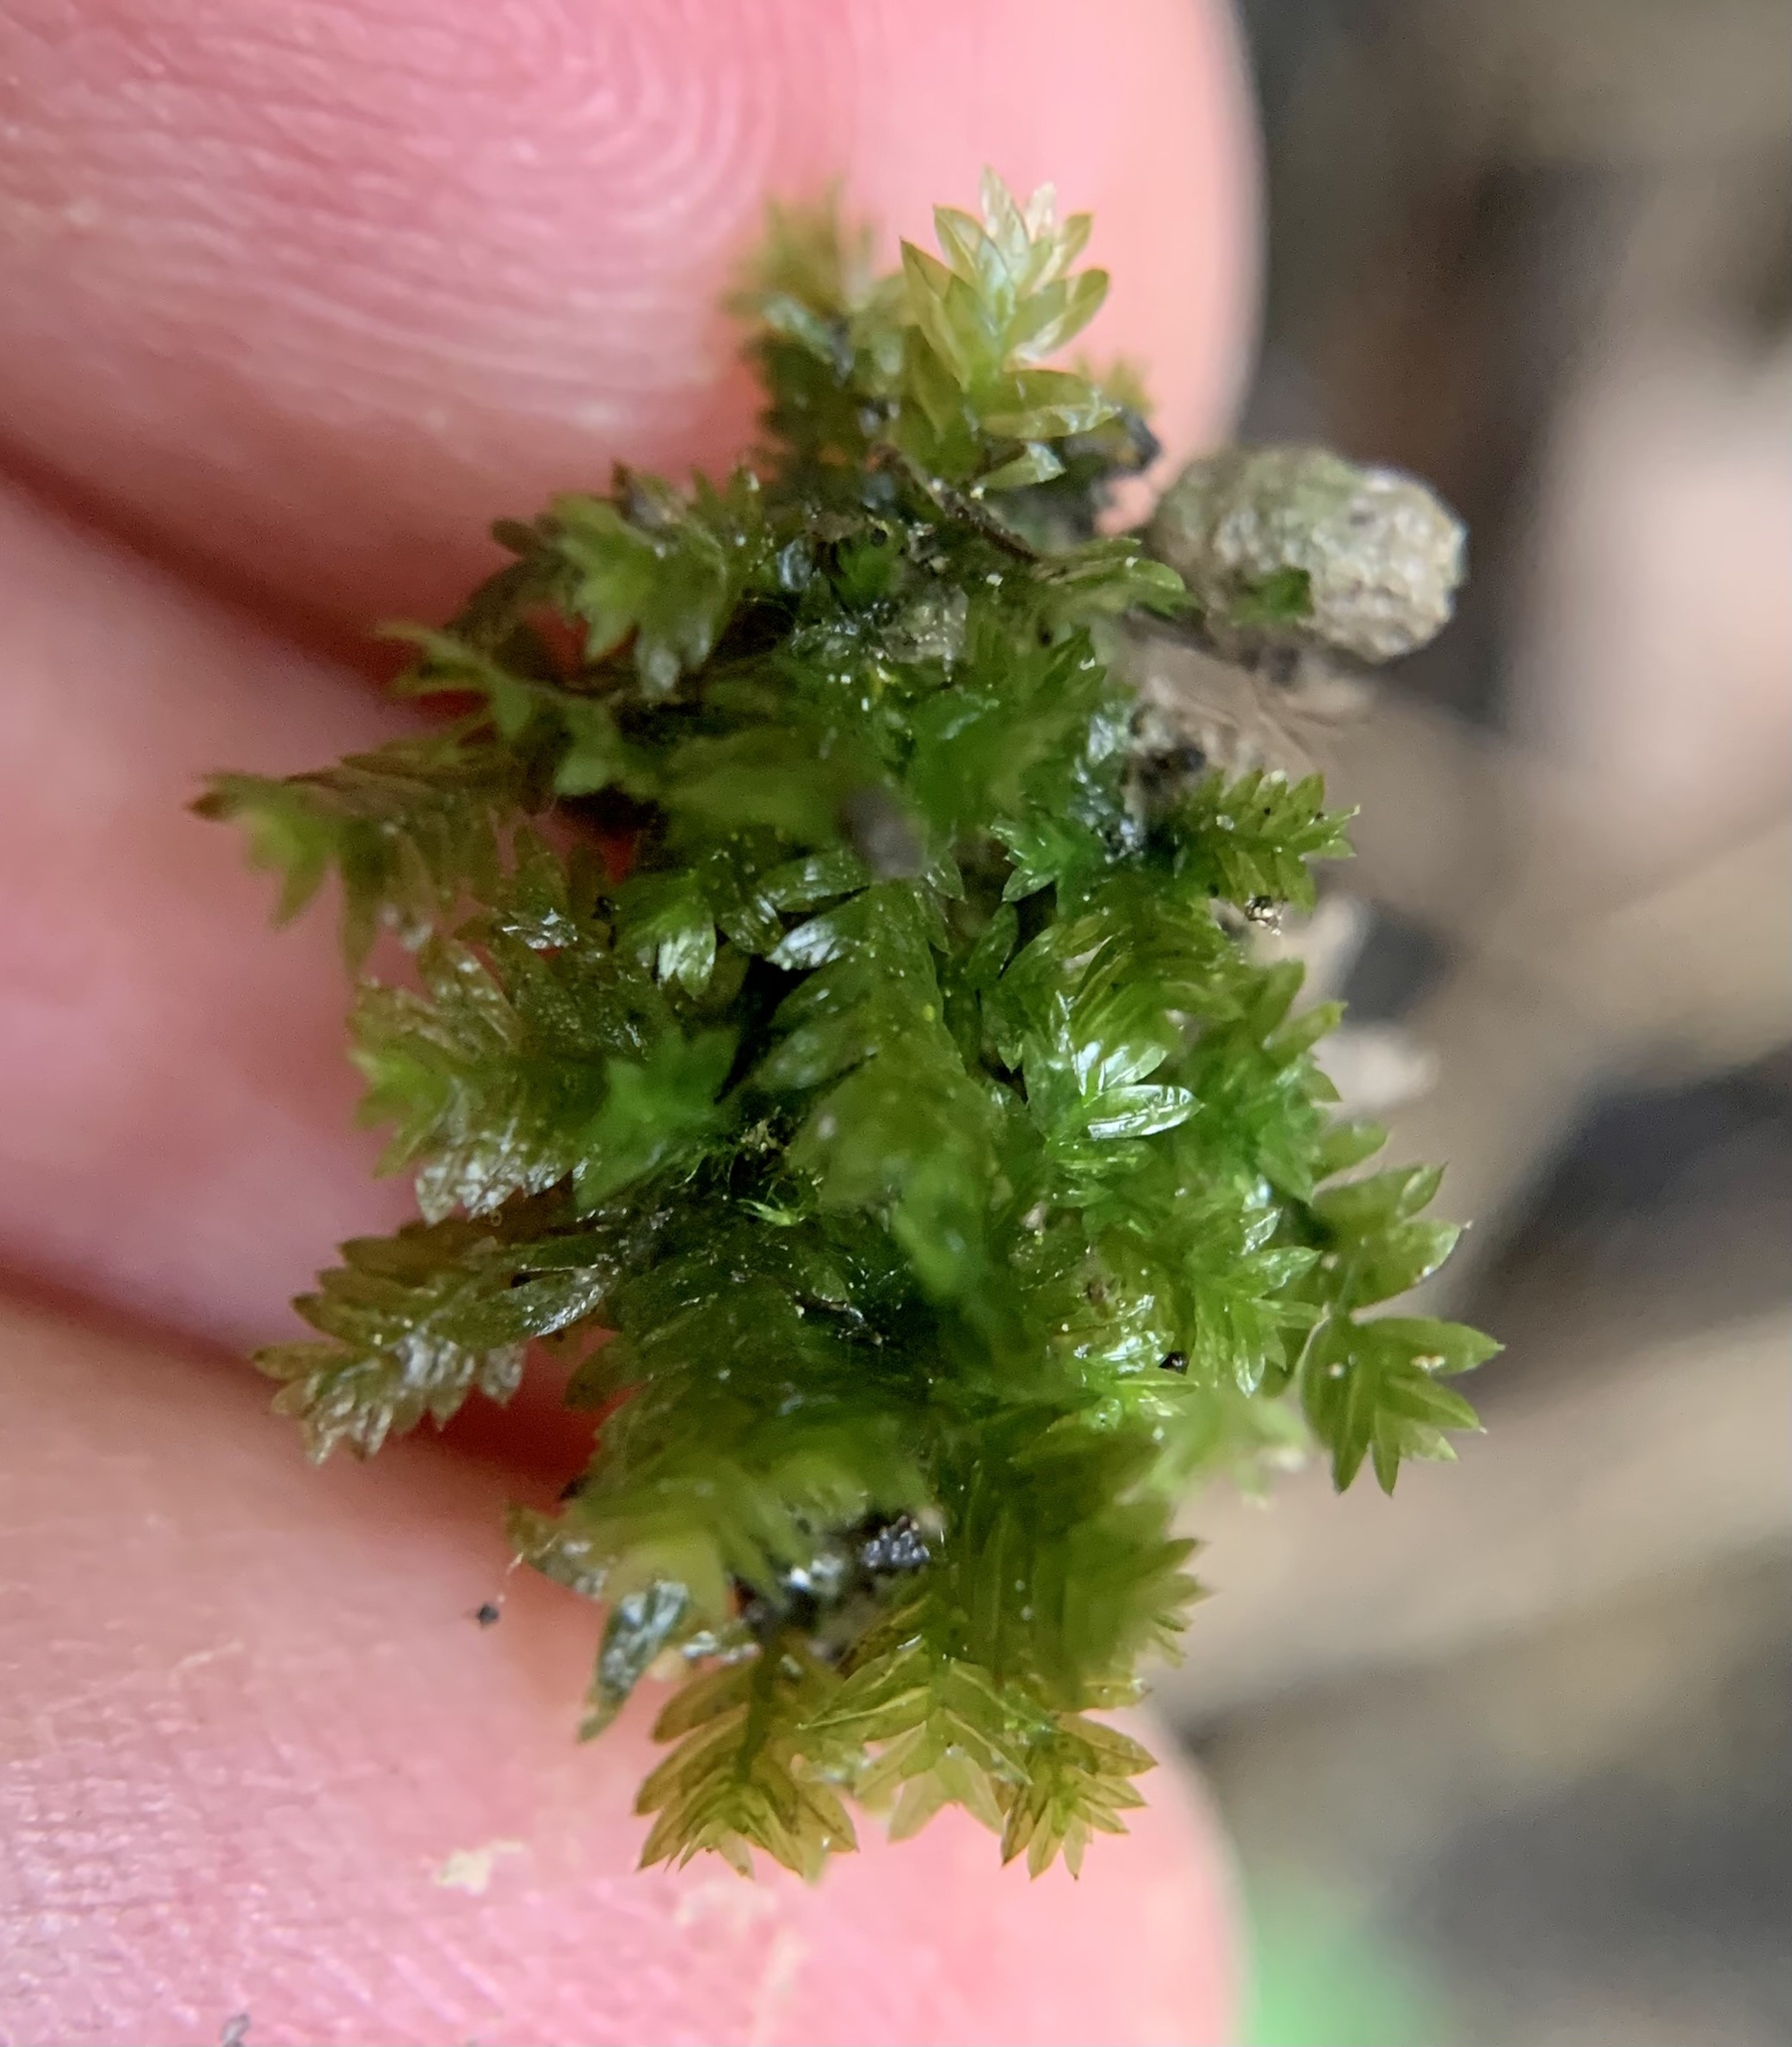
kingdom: Plantae
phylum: Bryophyta
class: Bryopsida
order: Dicranales
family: Fissidentaceae
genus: Fissidens
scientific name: Fissidens taxifolius
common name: Yew-leaved pocket moss
